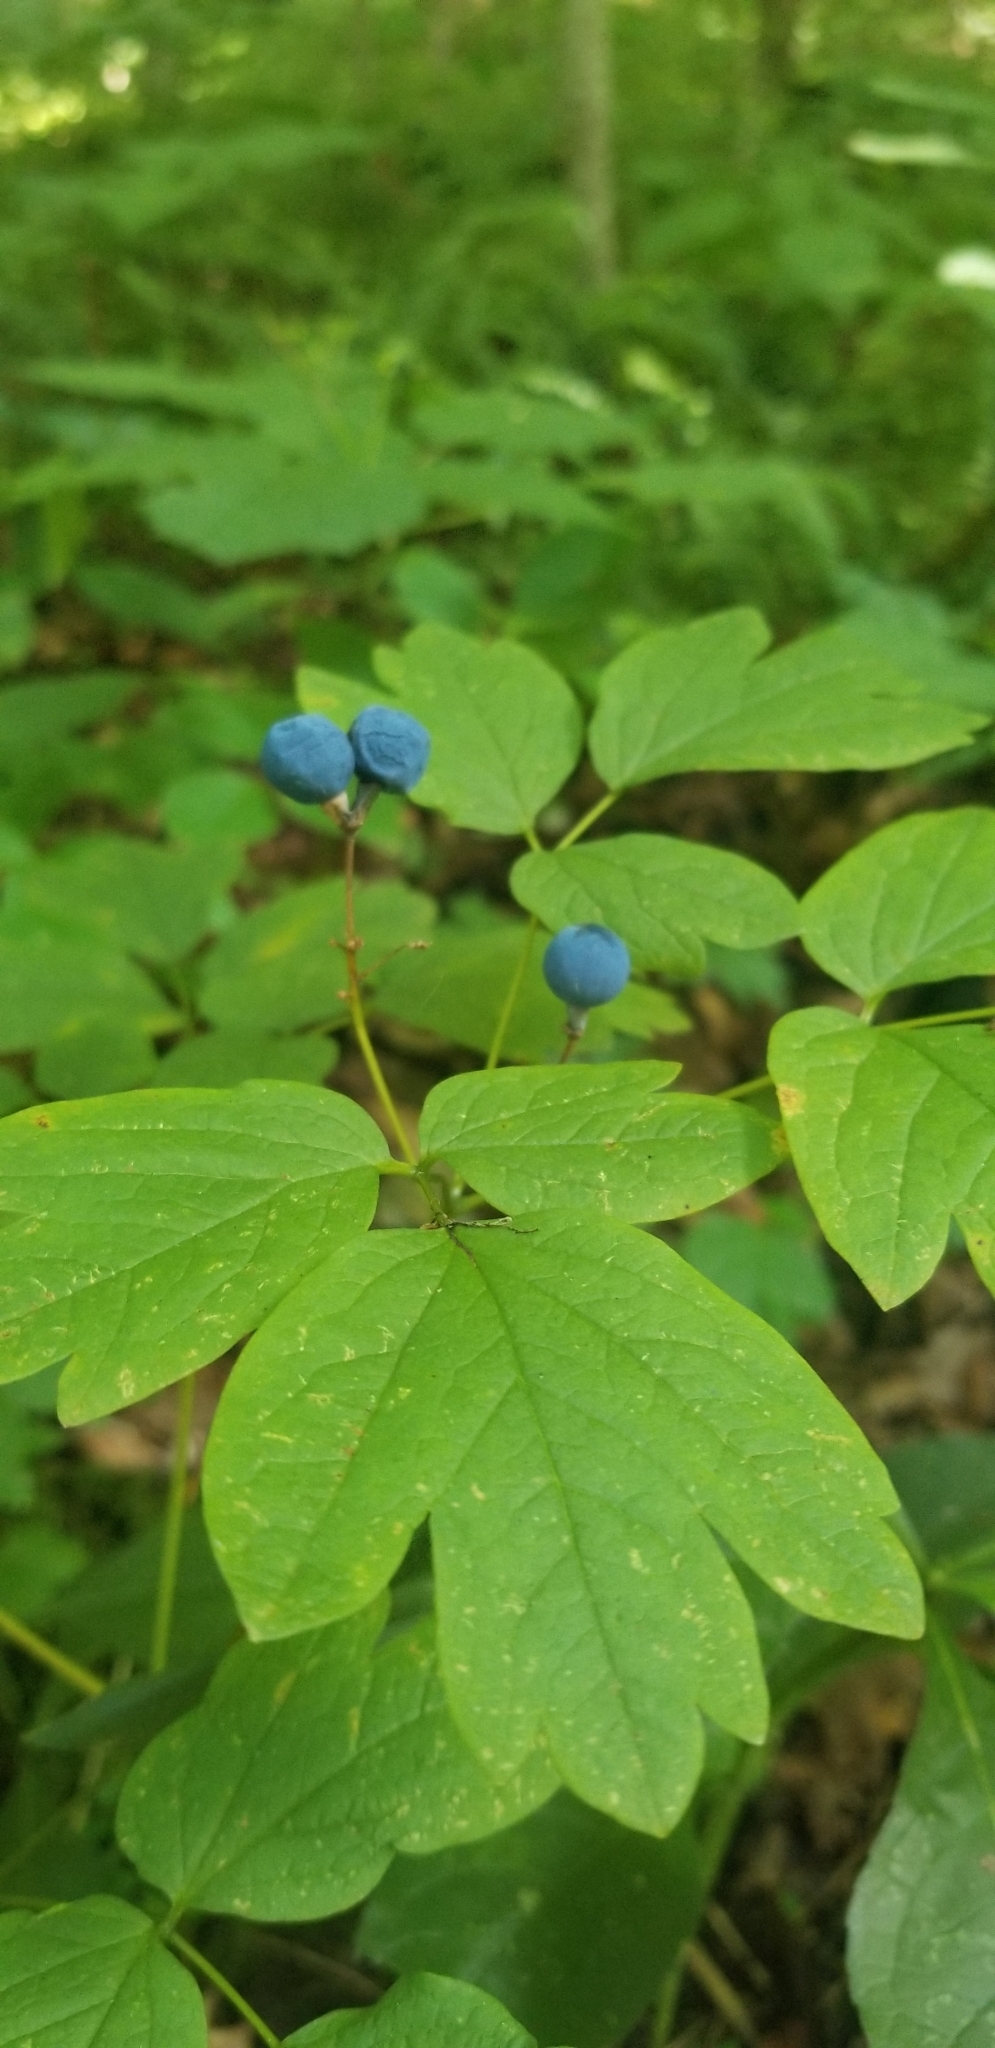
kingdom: Plantae
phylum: Tracheophyta
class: Magnoliopsida
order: Ranunculales
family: Berberidaceae
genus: Caulophyllum
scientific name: Caulophyllum thalictroides
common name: Blue cohosh
